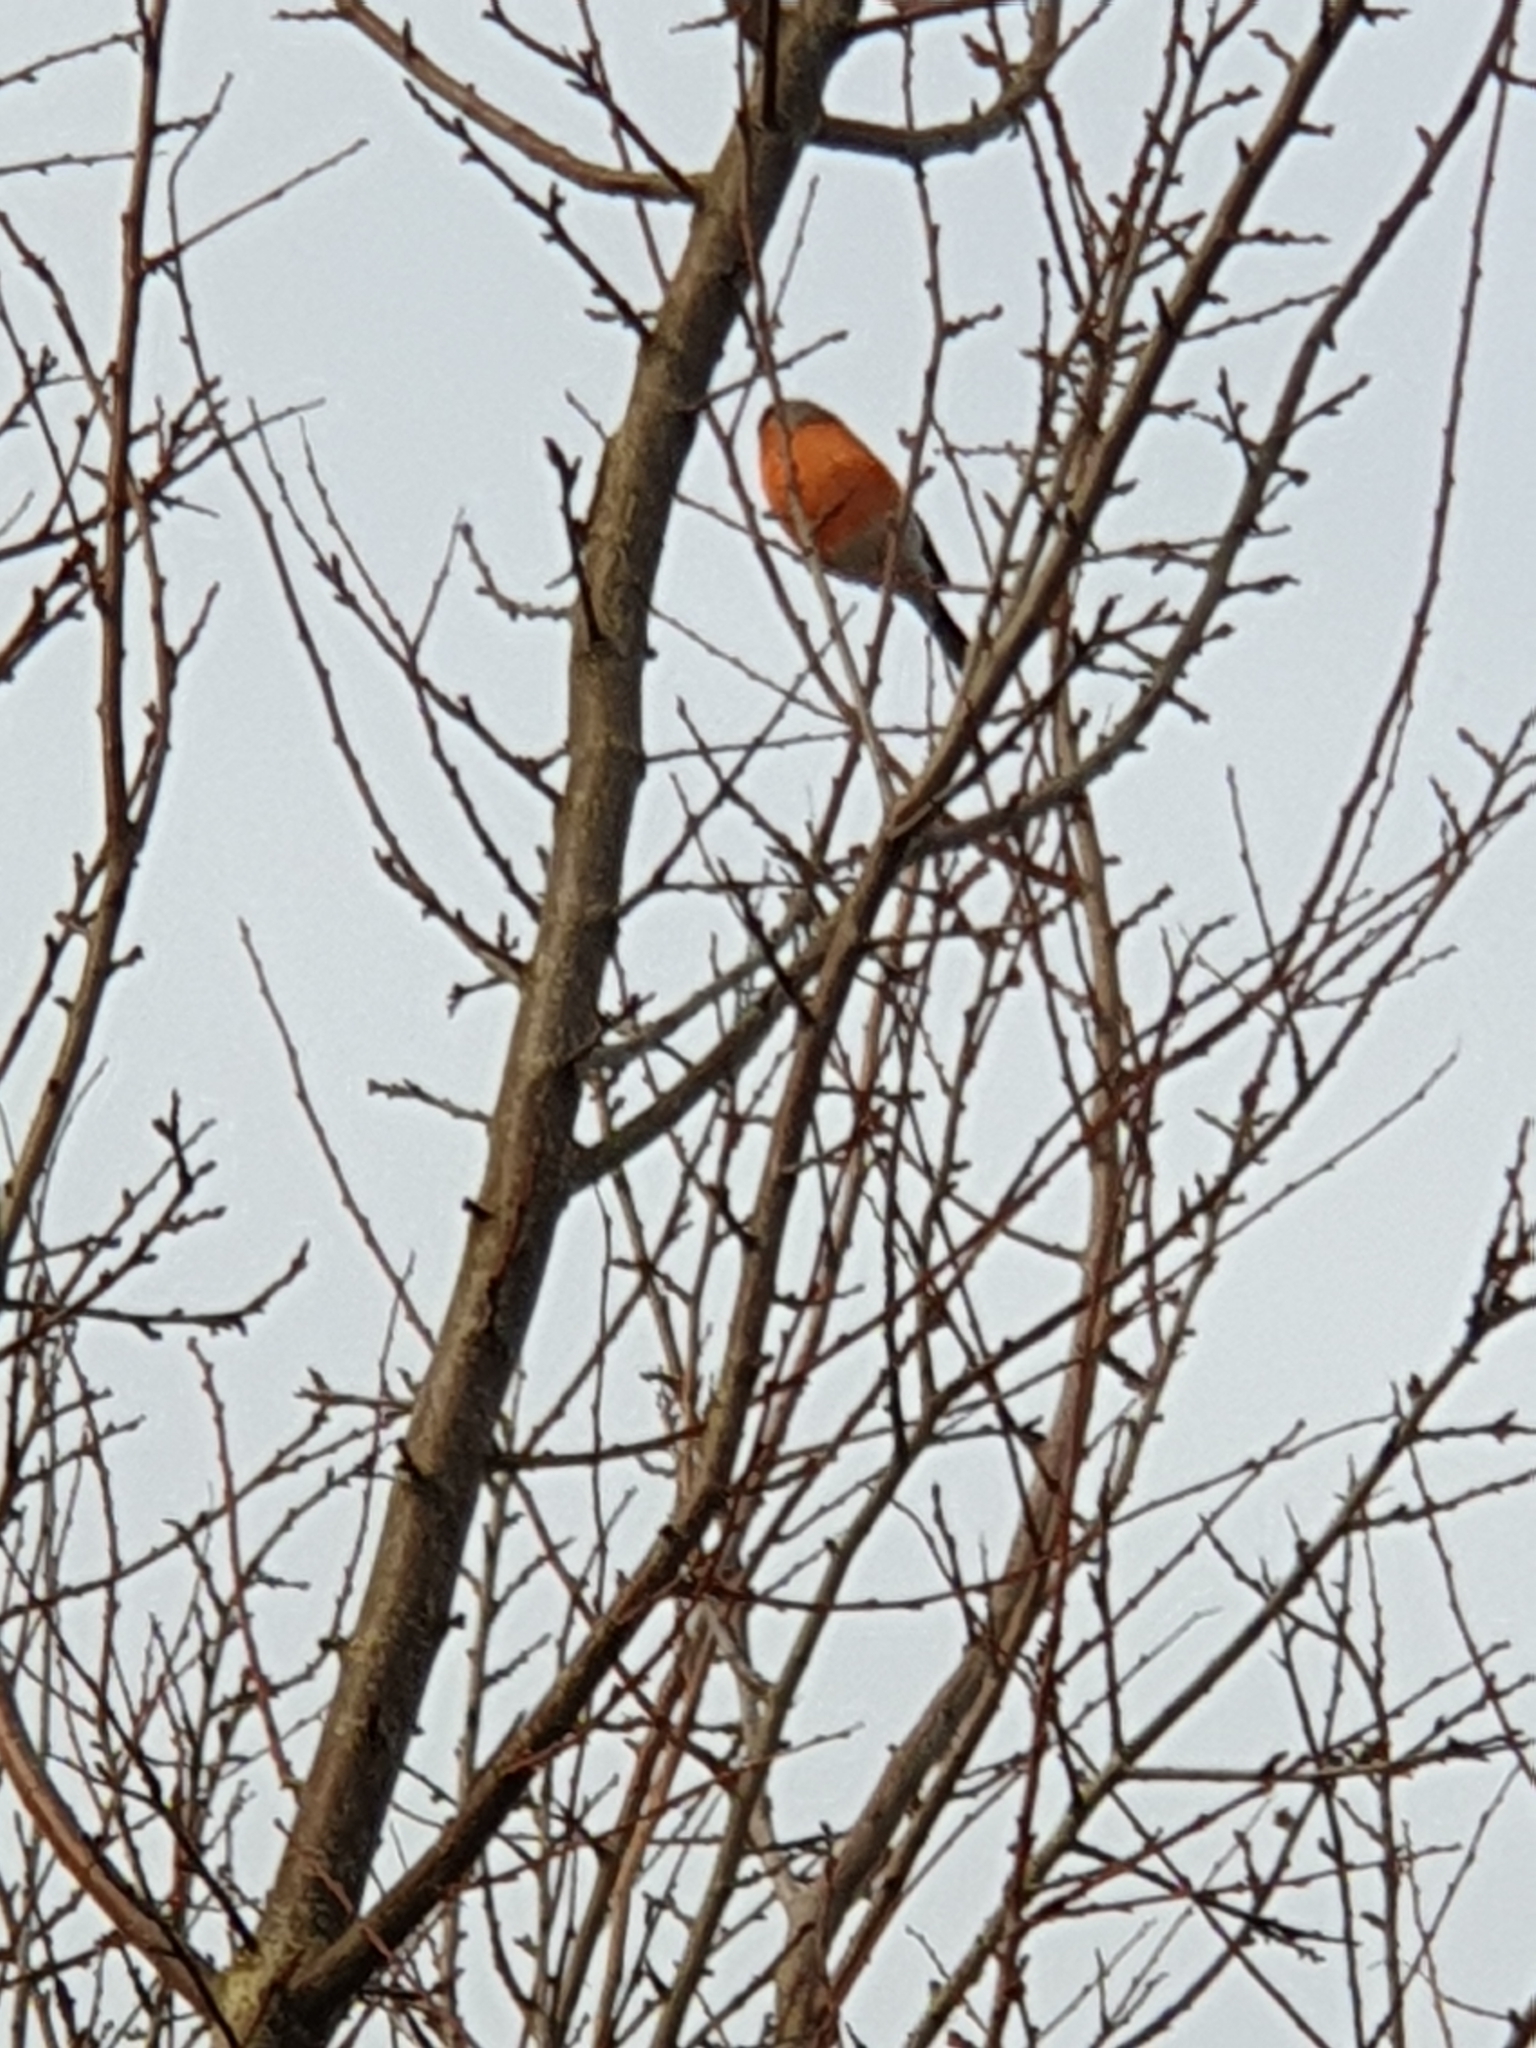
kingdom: Animalia
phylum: Chordata
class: Aves
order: Passeriformes
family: Fringillidae
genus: Pyrrhula
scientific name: Pyrrhula pyrrhula
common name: Eurasian bullfinch
